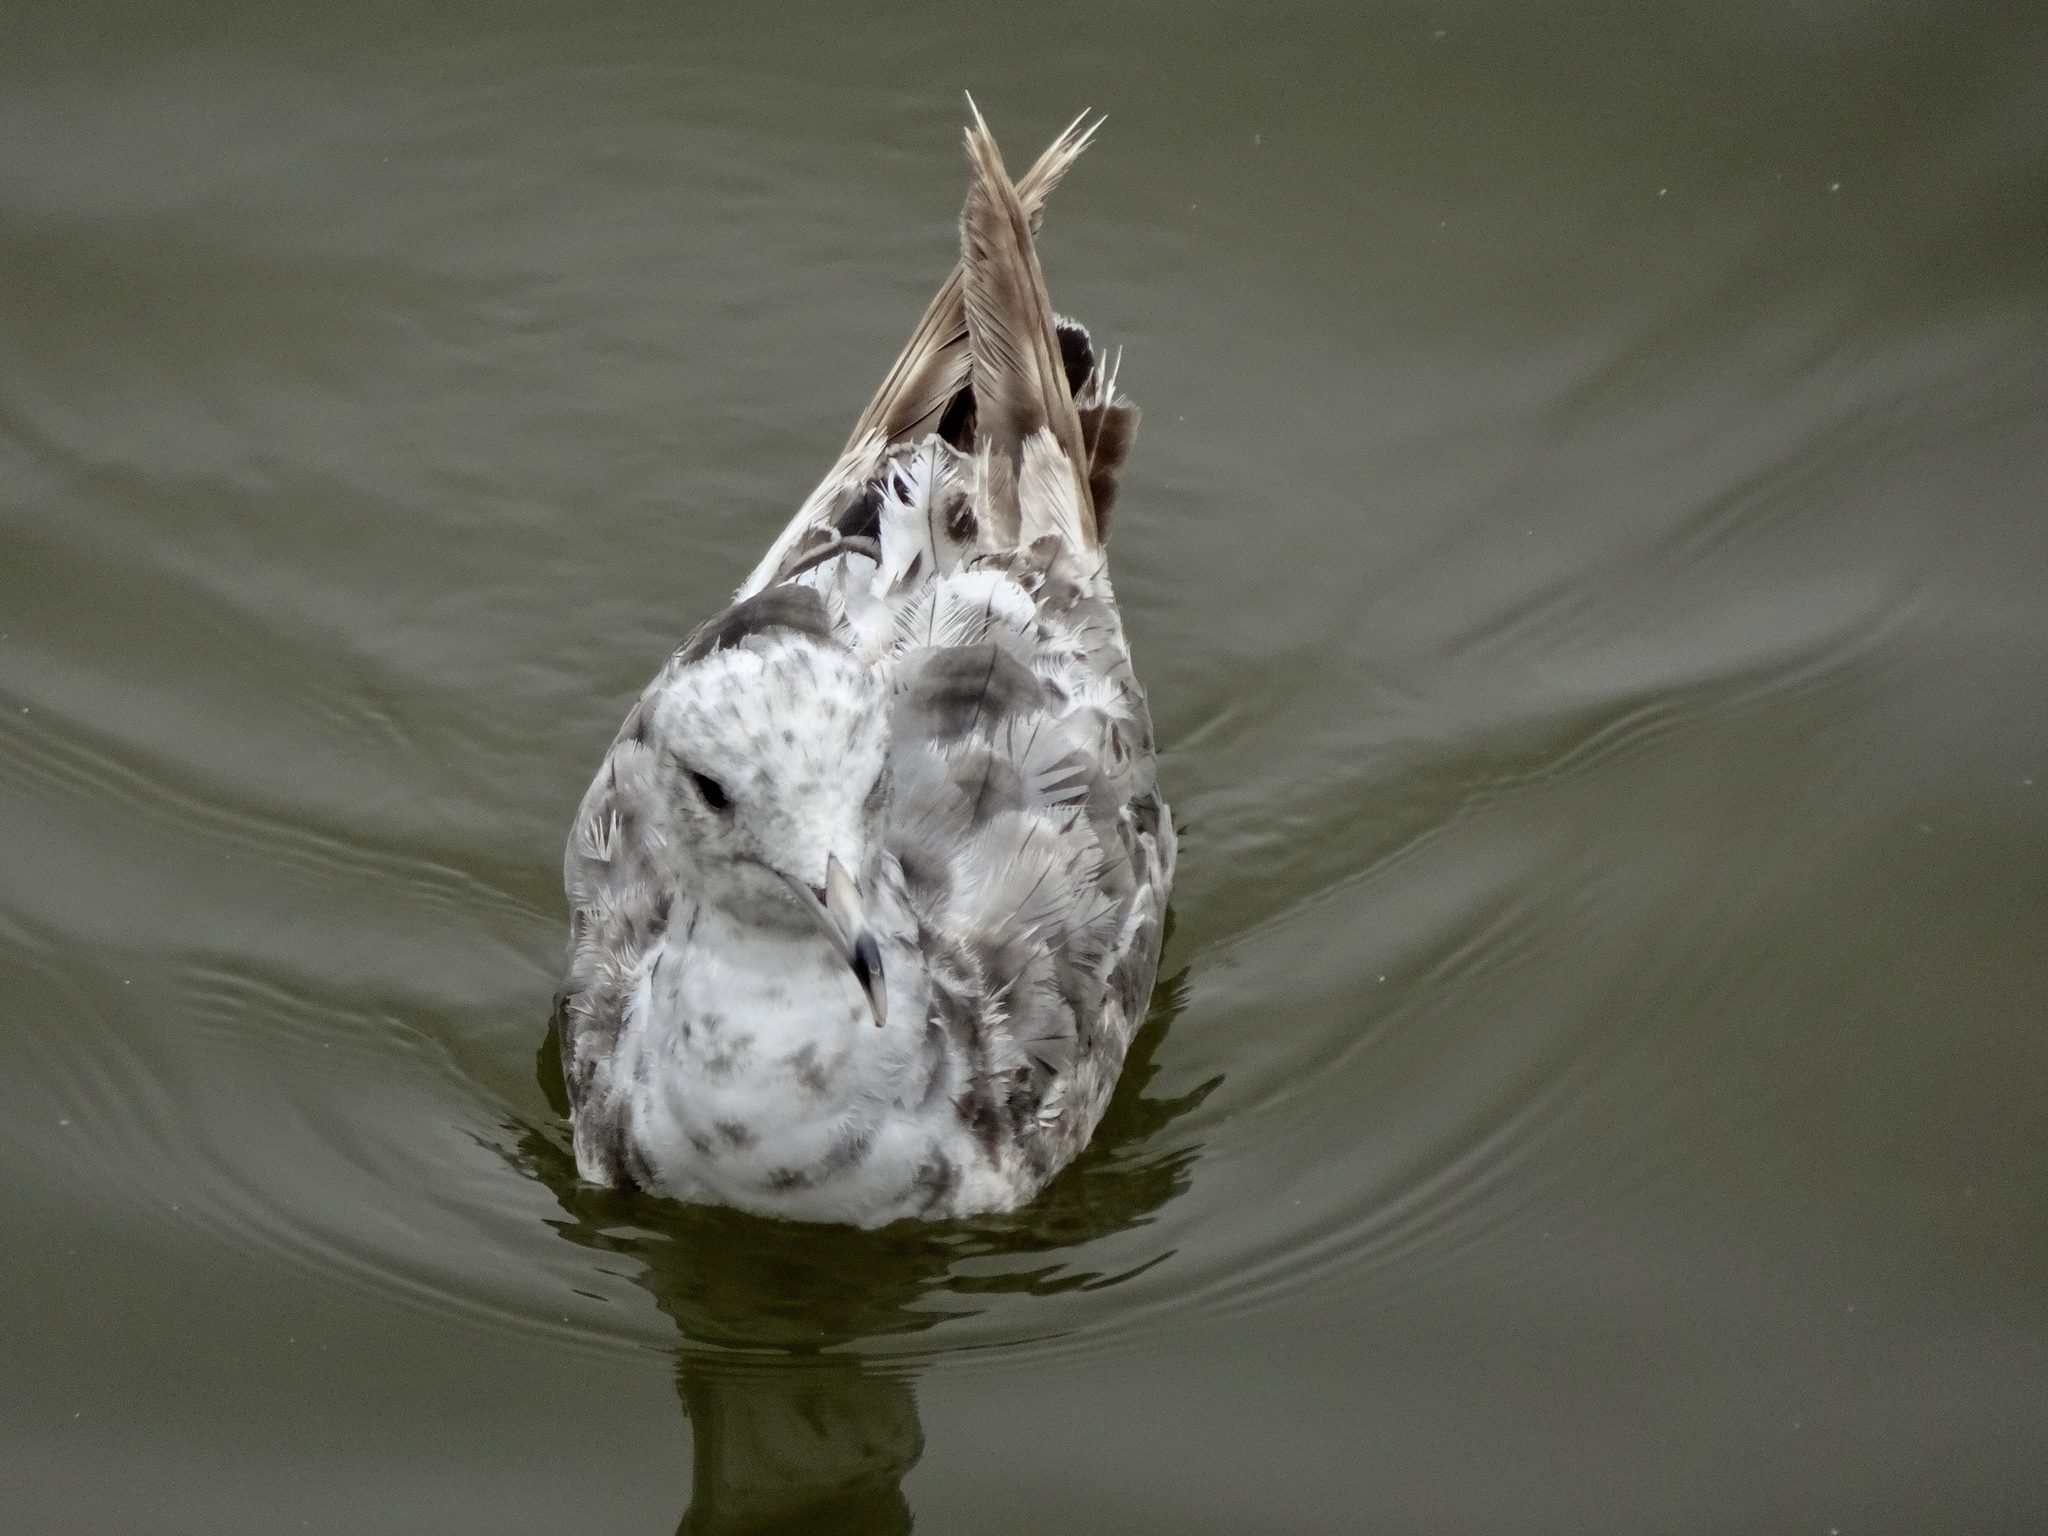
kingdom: Animalia
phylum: Chordata
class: Aves
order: Charadriiformes
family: Laridae
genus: Larus
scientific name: Larus californicus
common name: California gull
